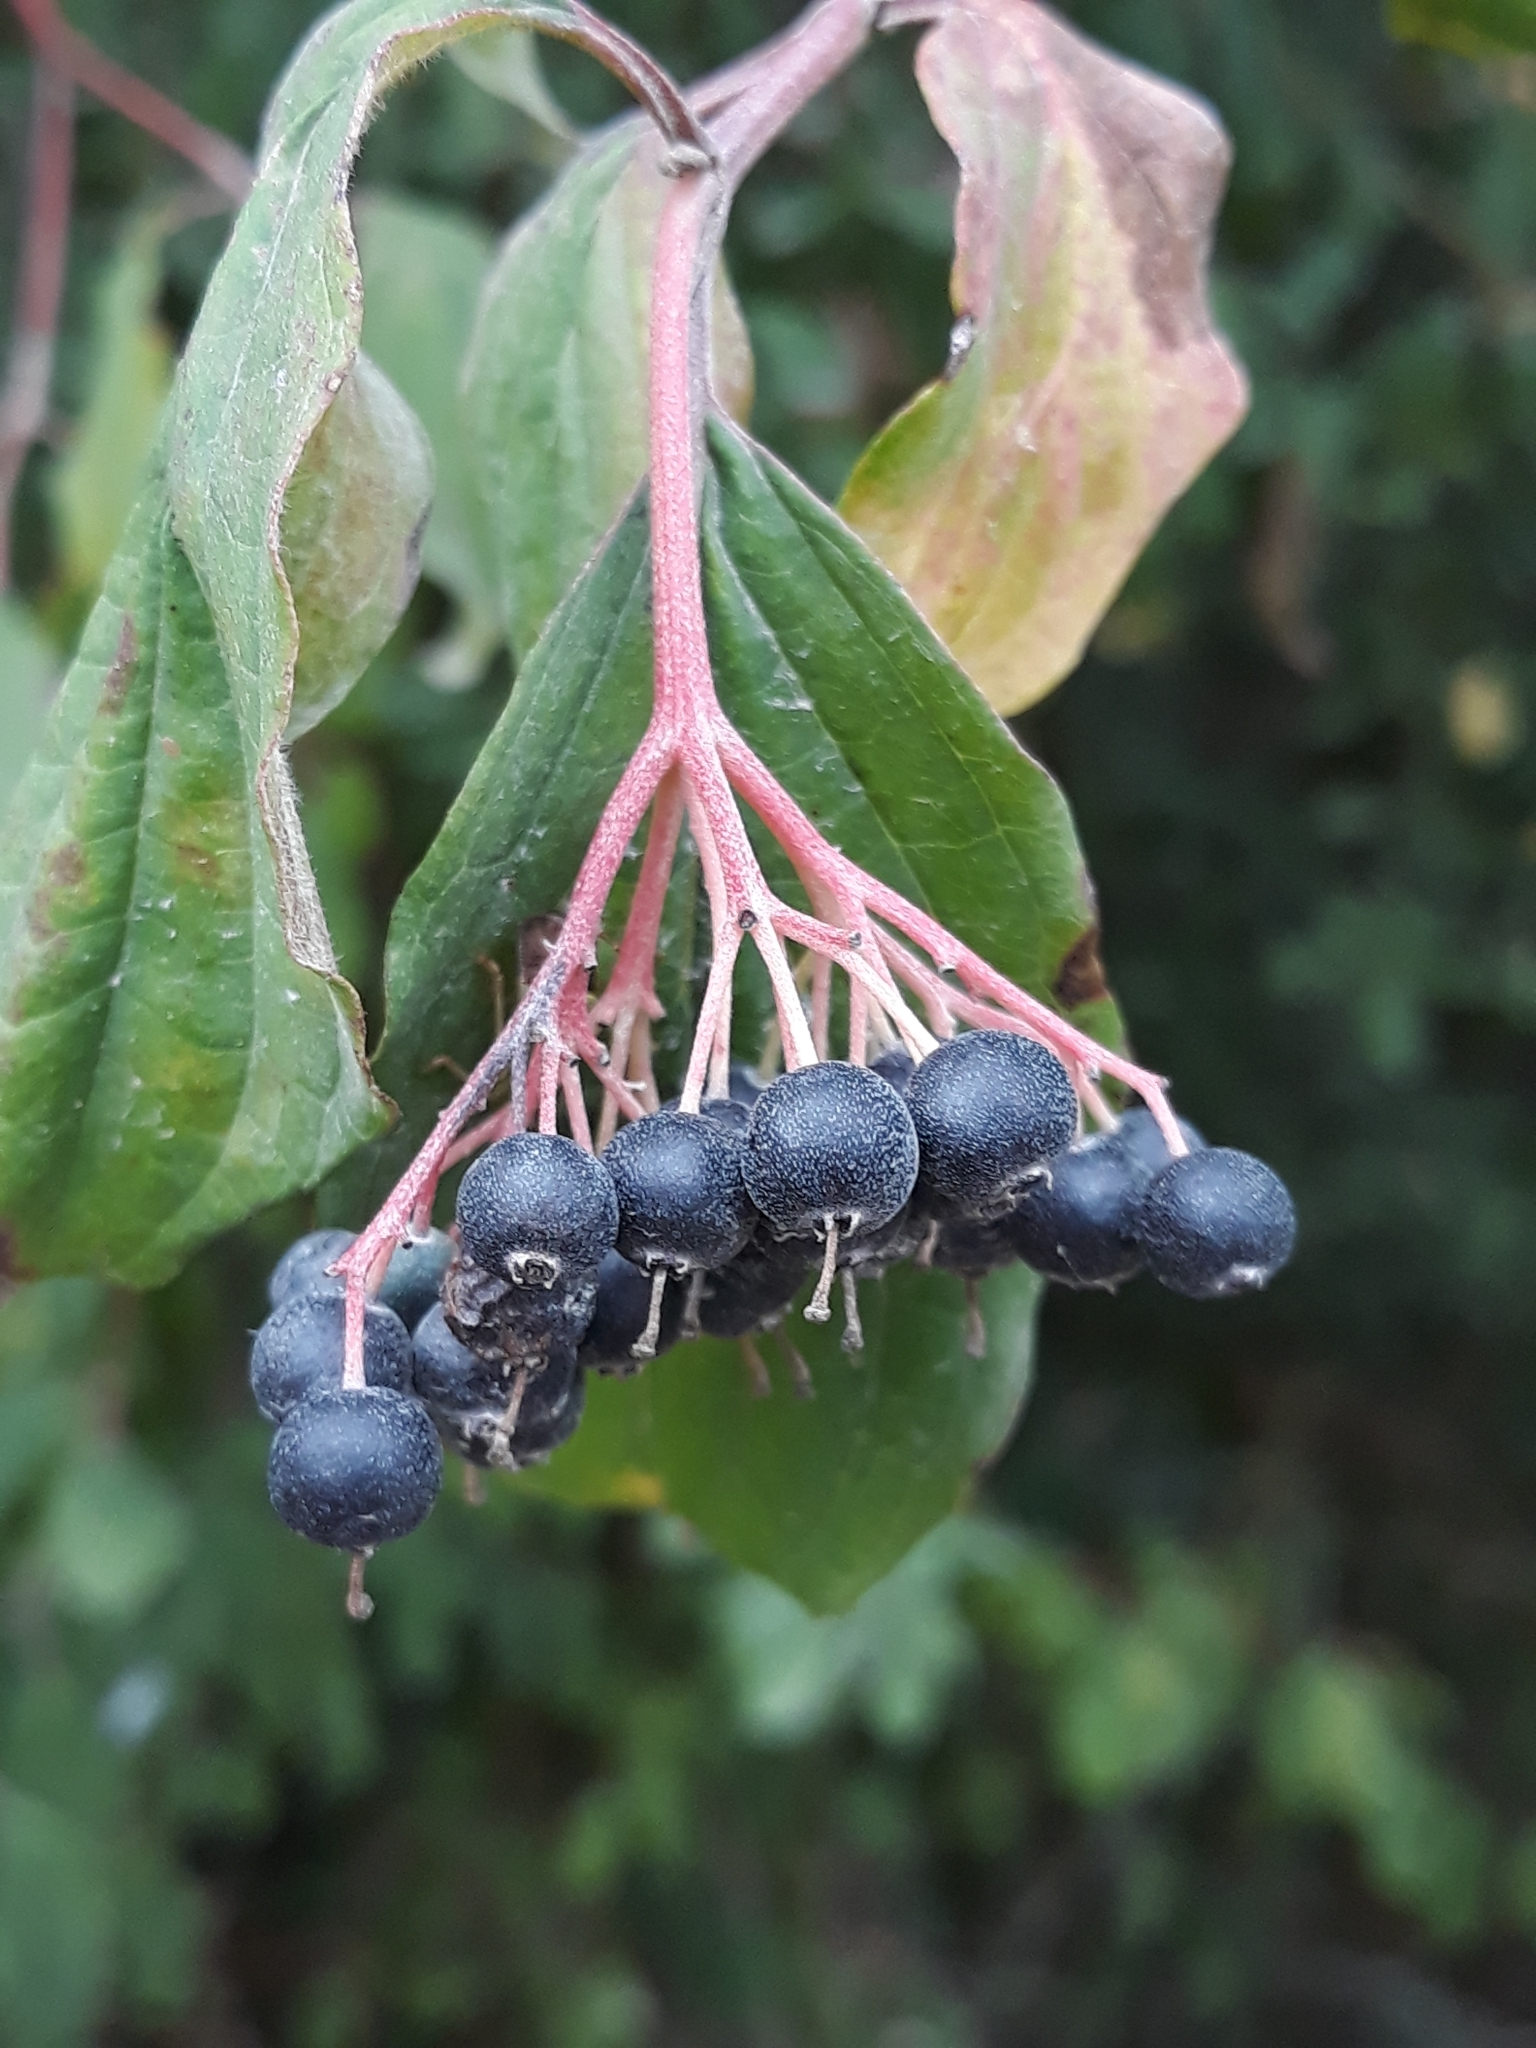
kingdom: Plantae
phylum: Tracheophyta
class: Magnoliopsida
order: Cornales
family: Cornaceae
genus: Cornus
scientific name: Cornus sanguinea
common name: Dogwood
